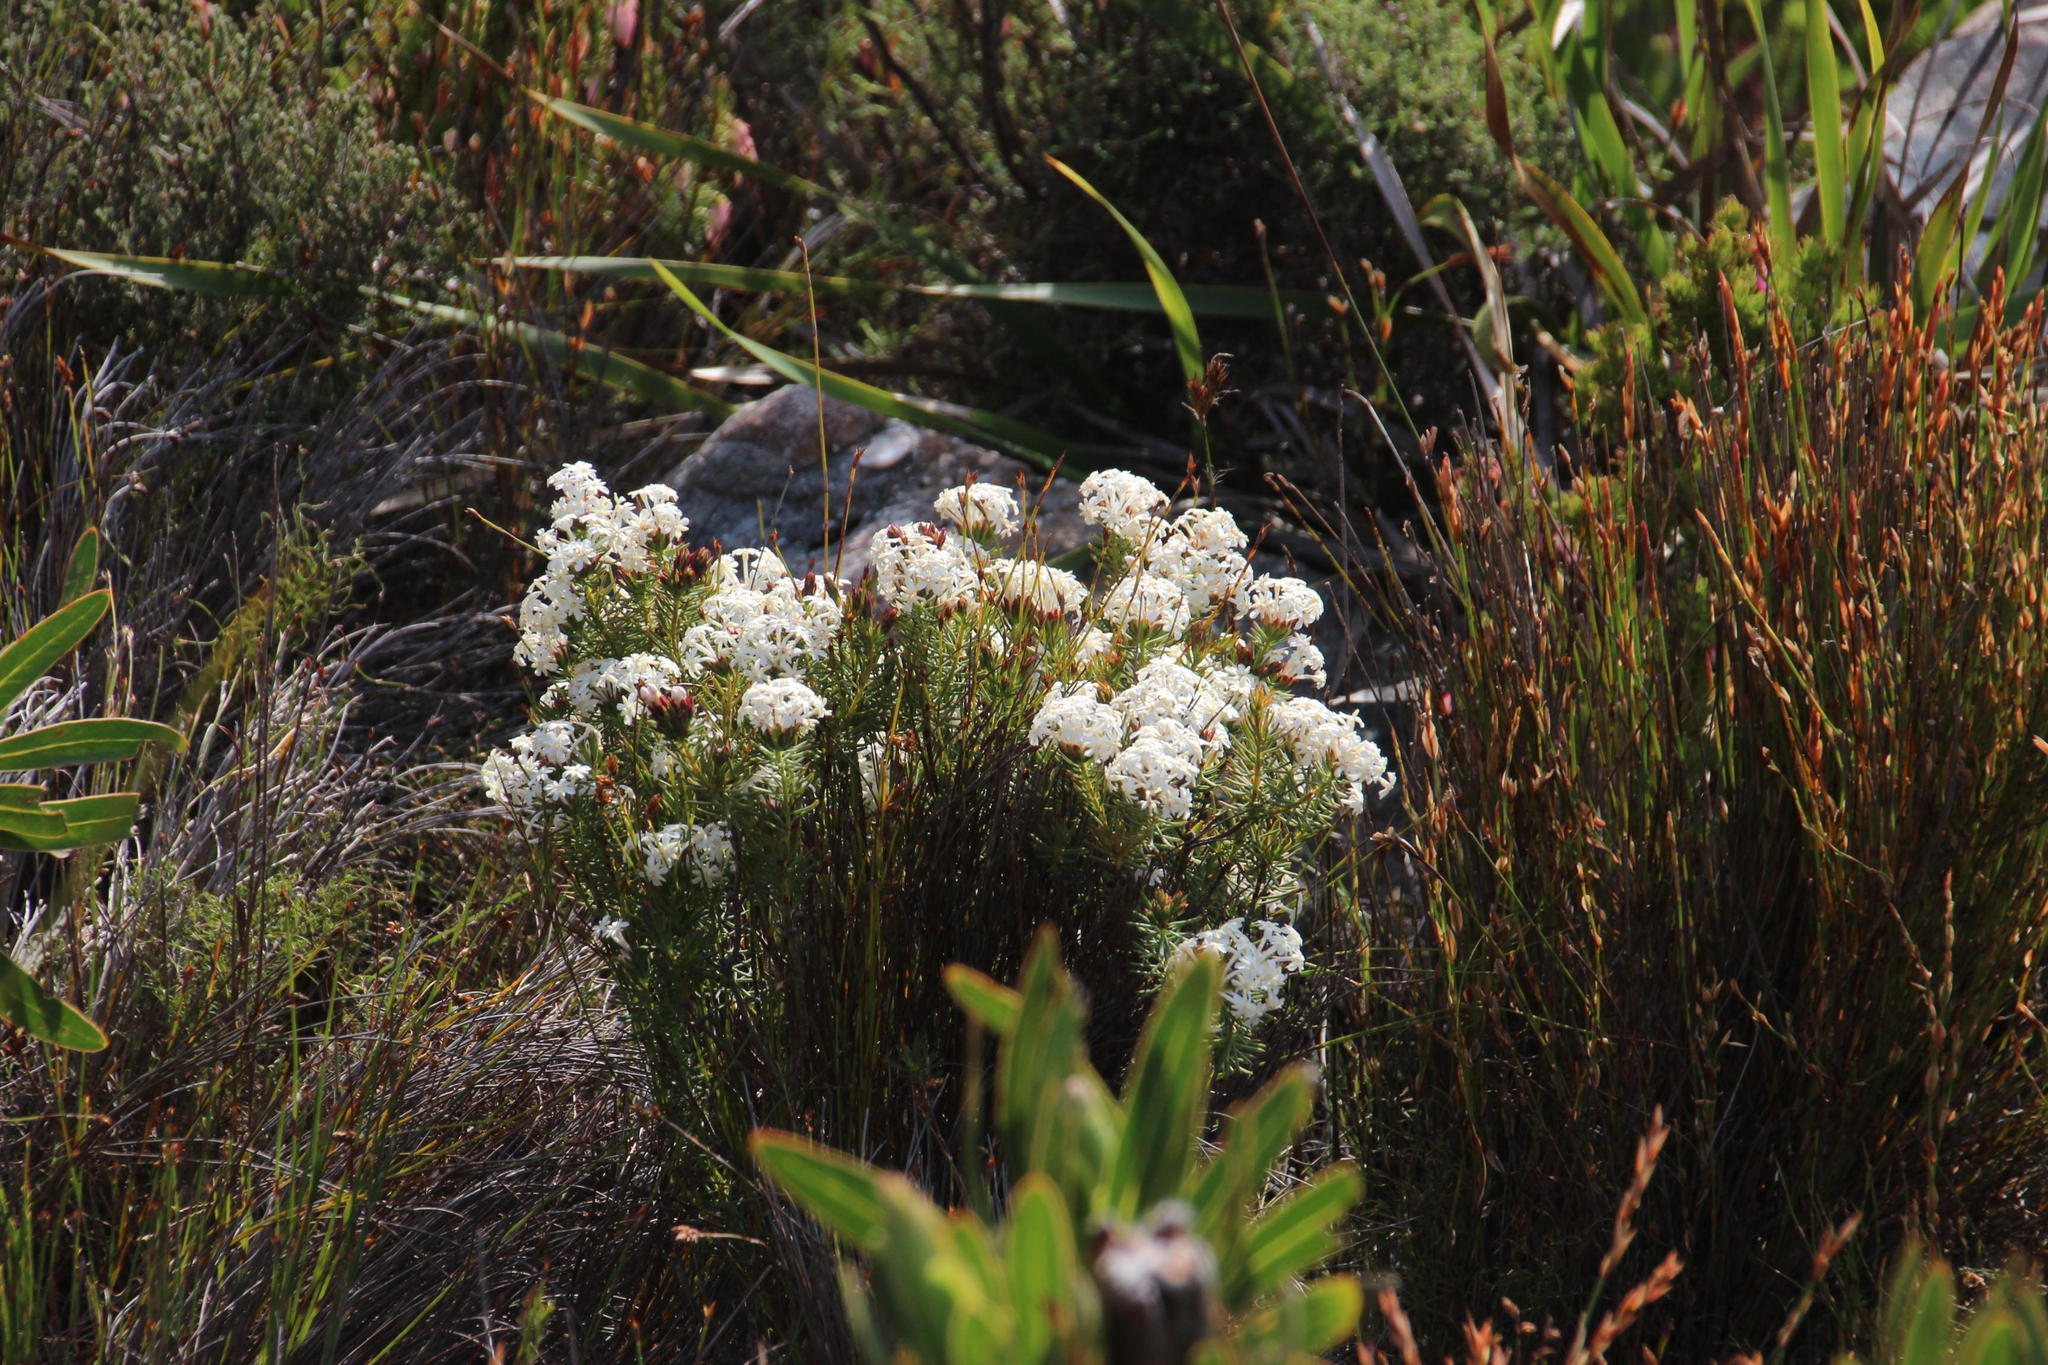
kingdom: Plantae
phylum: Tracheophyta
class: Magnoliopsida
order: Malvales
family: Thymelaeaceae
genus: Gnidia
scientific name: Gnidia pinifolia
